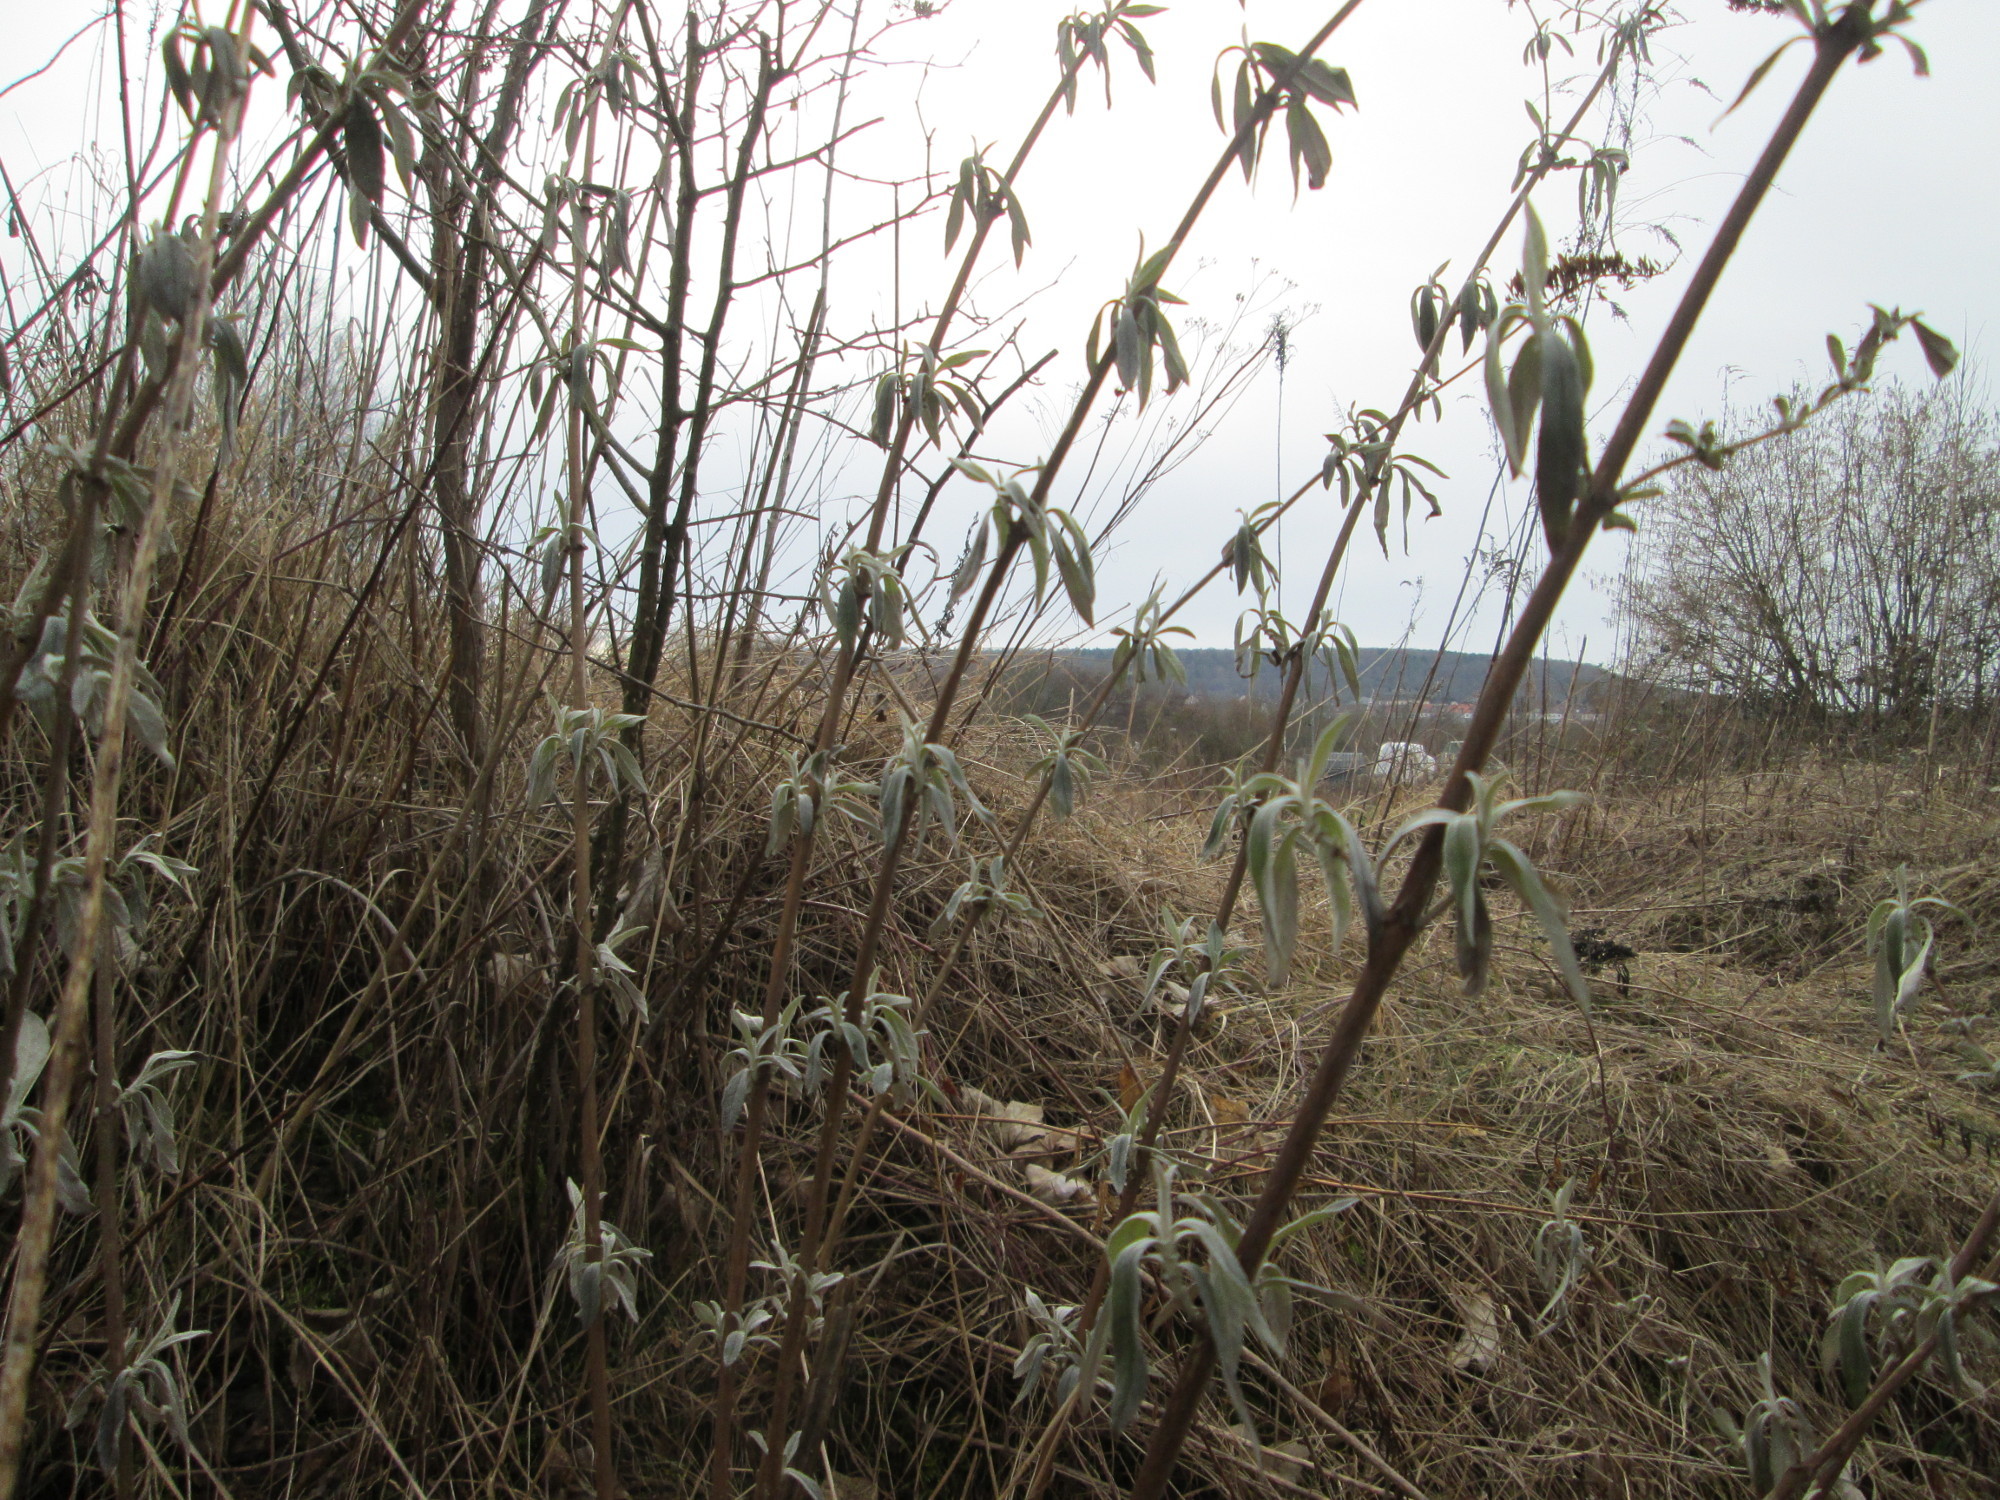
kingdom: Plantae
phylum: Tracheophyta
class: Magnoliopsida
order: Lamiales
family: Scrophulariaceae
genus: Buddleja
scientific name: Buddleja davidii
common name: Butterfly-bush
